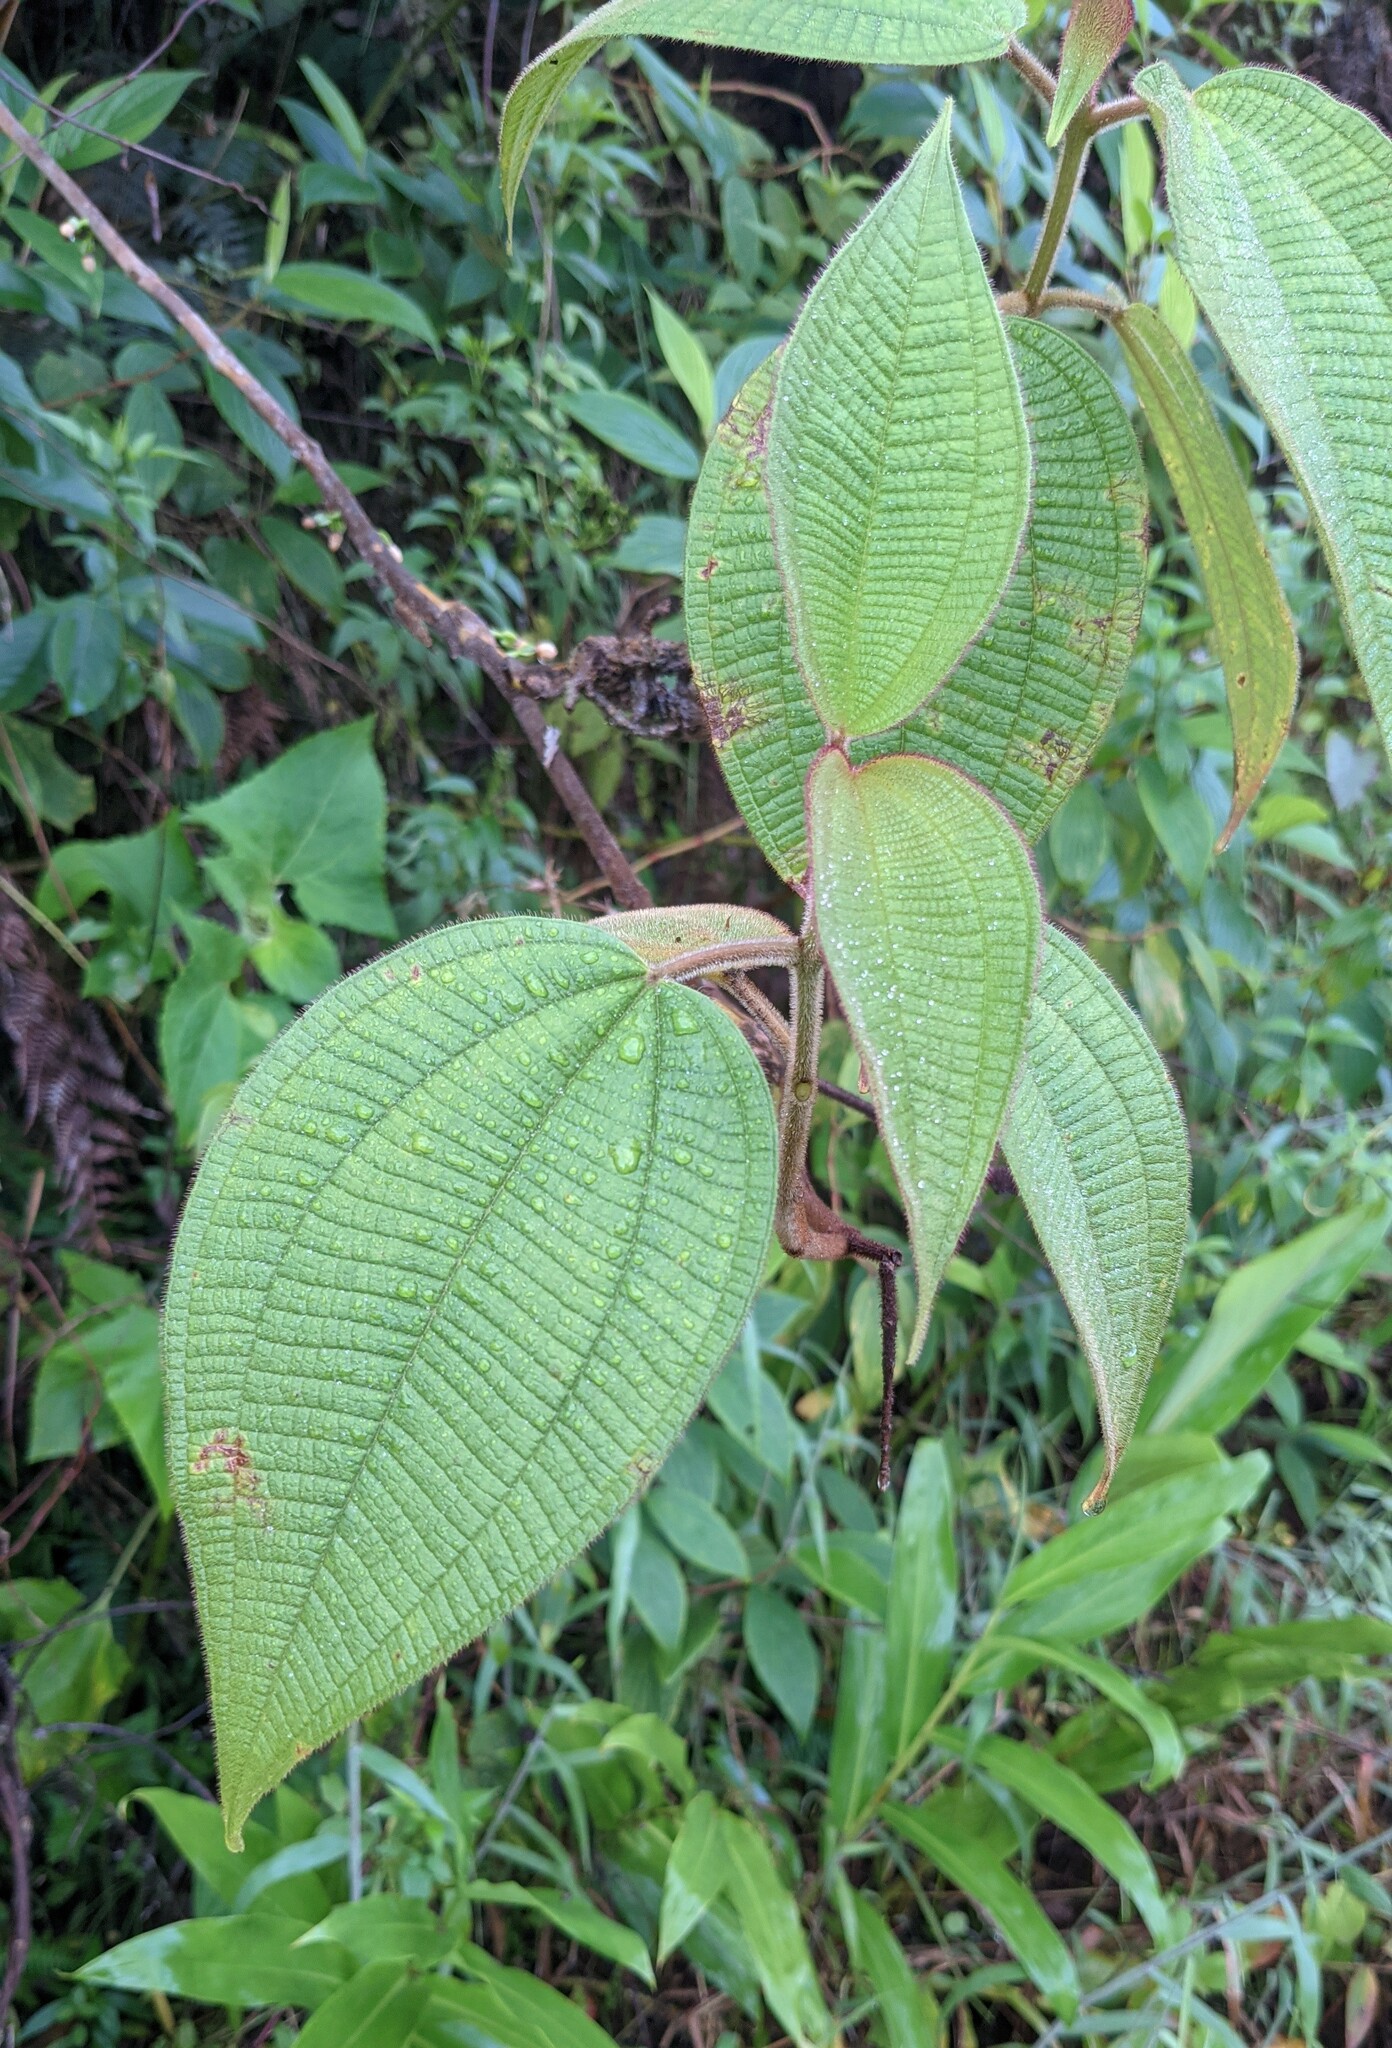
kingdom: Plantae
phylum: Tracheophyta
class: Magnoliopsida
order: Myrtales
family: Melastomataceae
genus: Miconia
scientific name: Miconia aeruginosa
